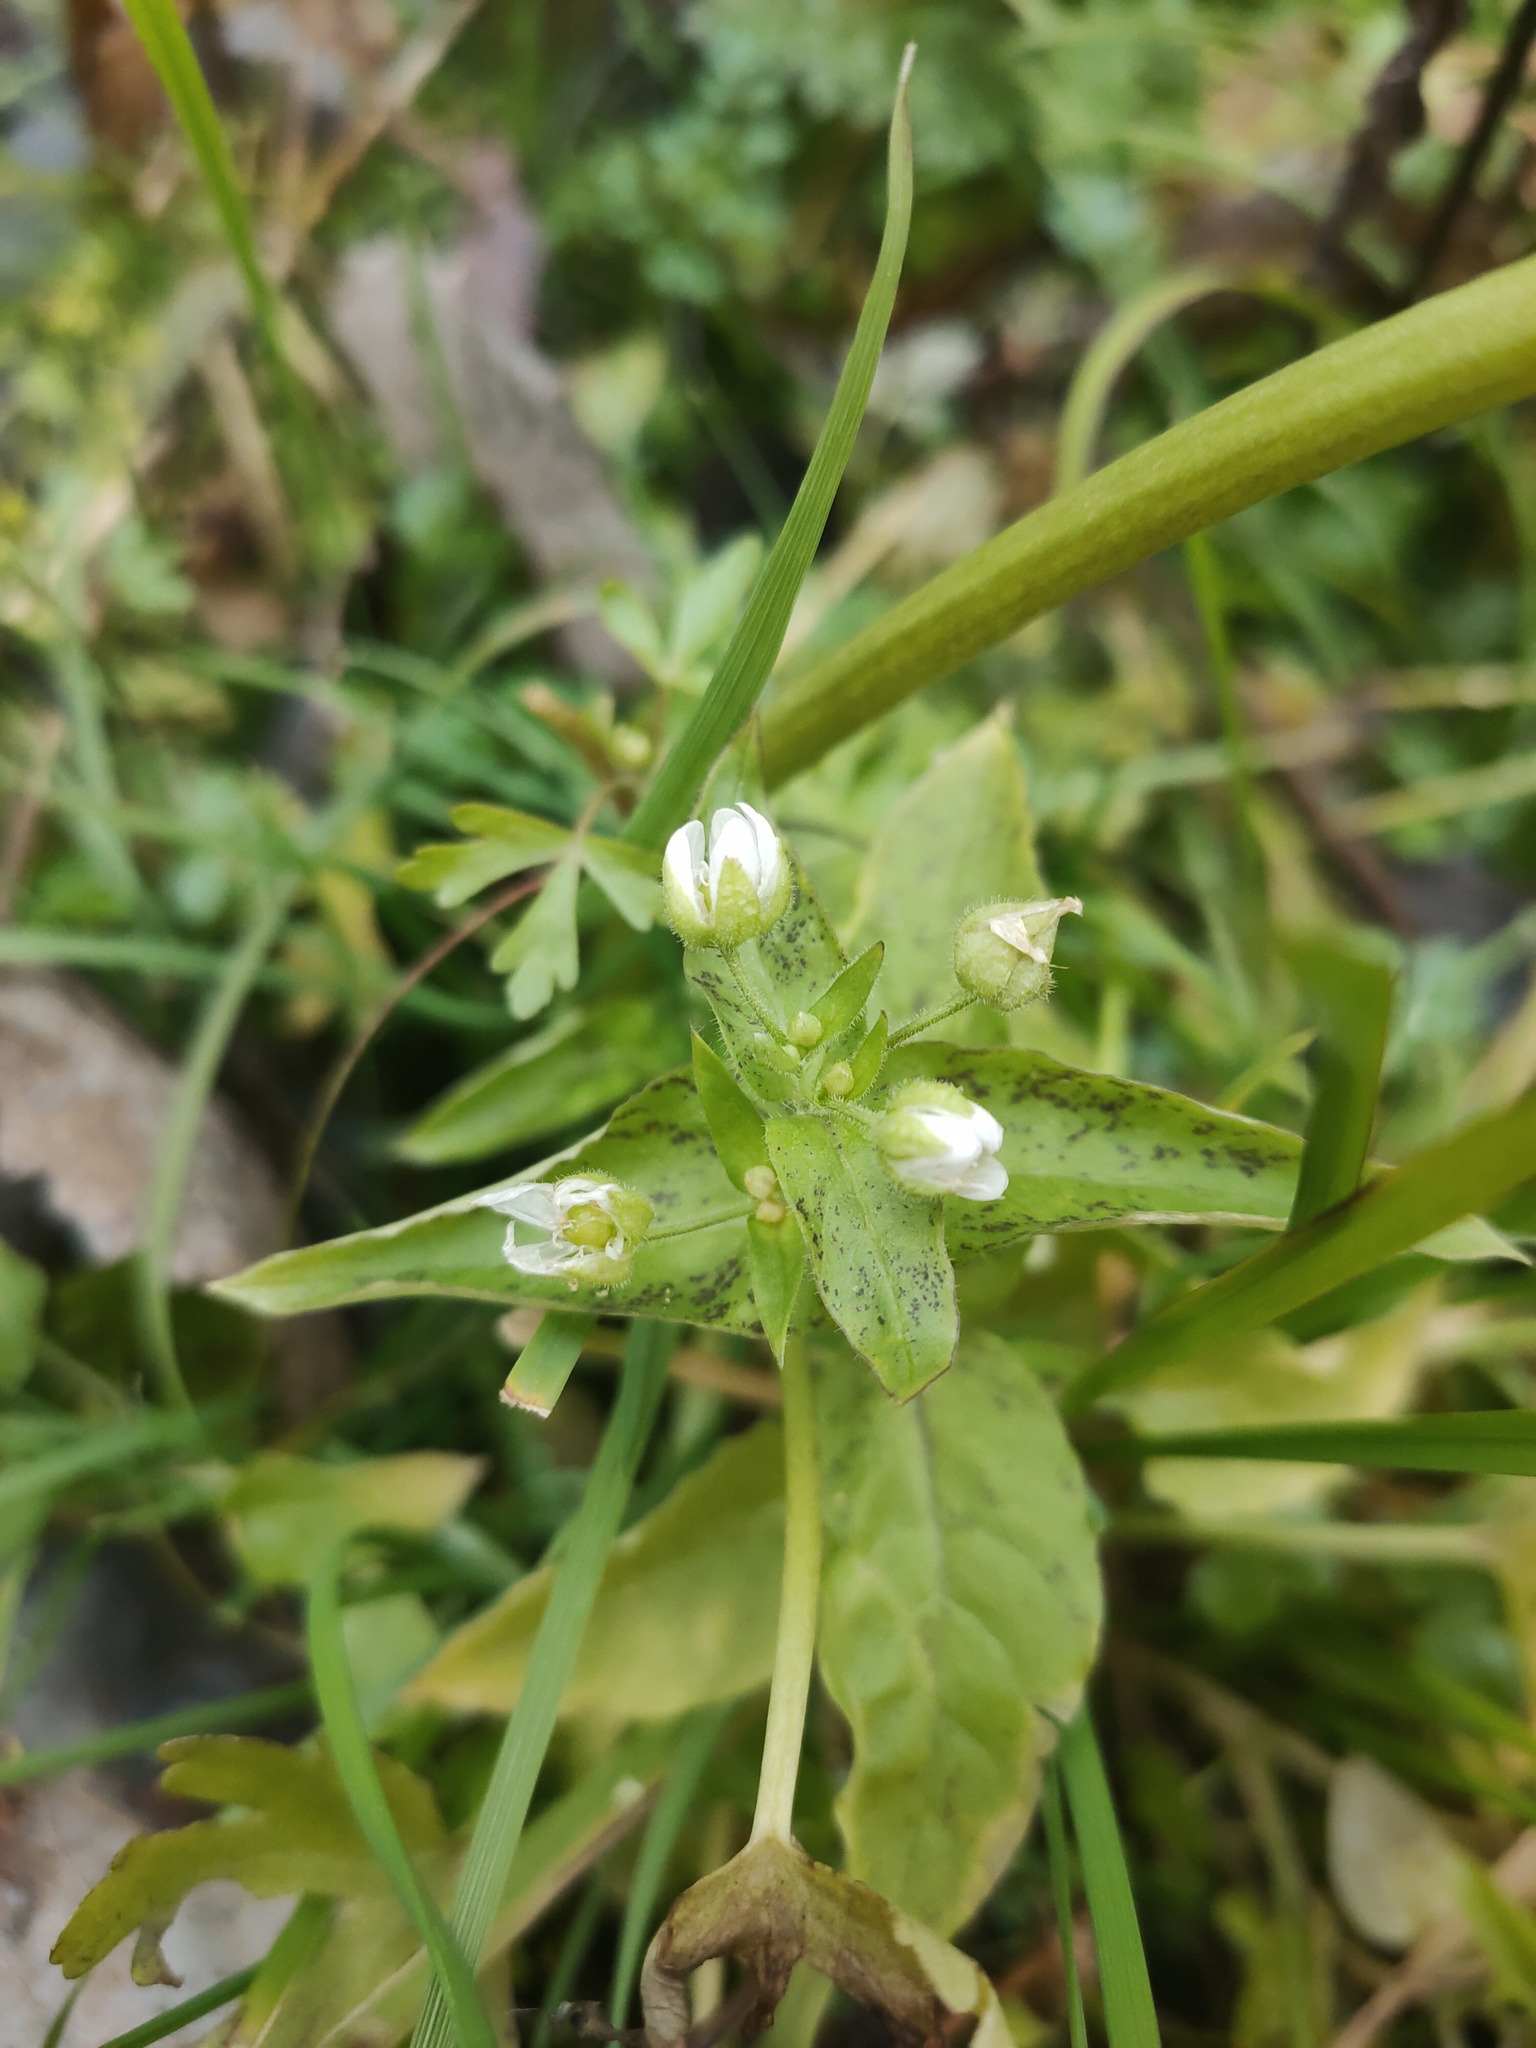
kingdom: Plantae
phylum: Tracheophyta
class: Magnoliopsida
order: Caryophyllales
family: Caryophyllaceae
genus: Stellaria
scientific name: Stellaria aquatica
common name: Water chickweed
